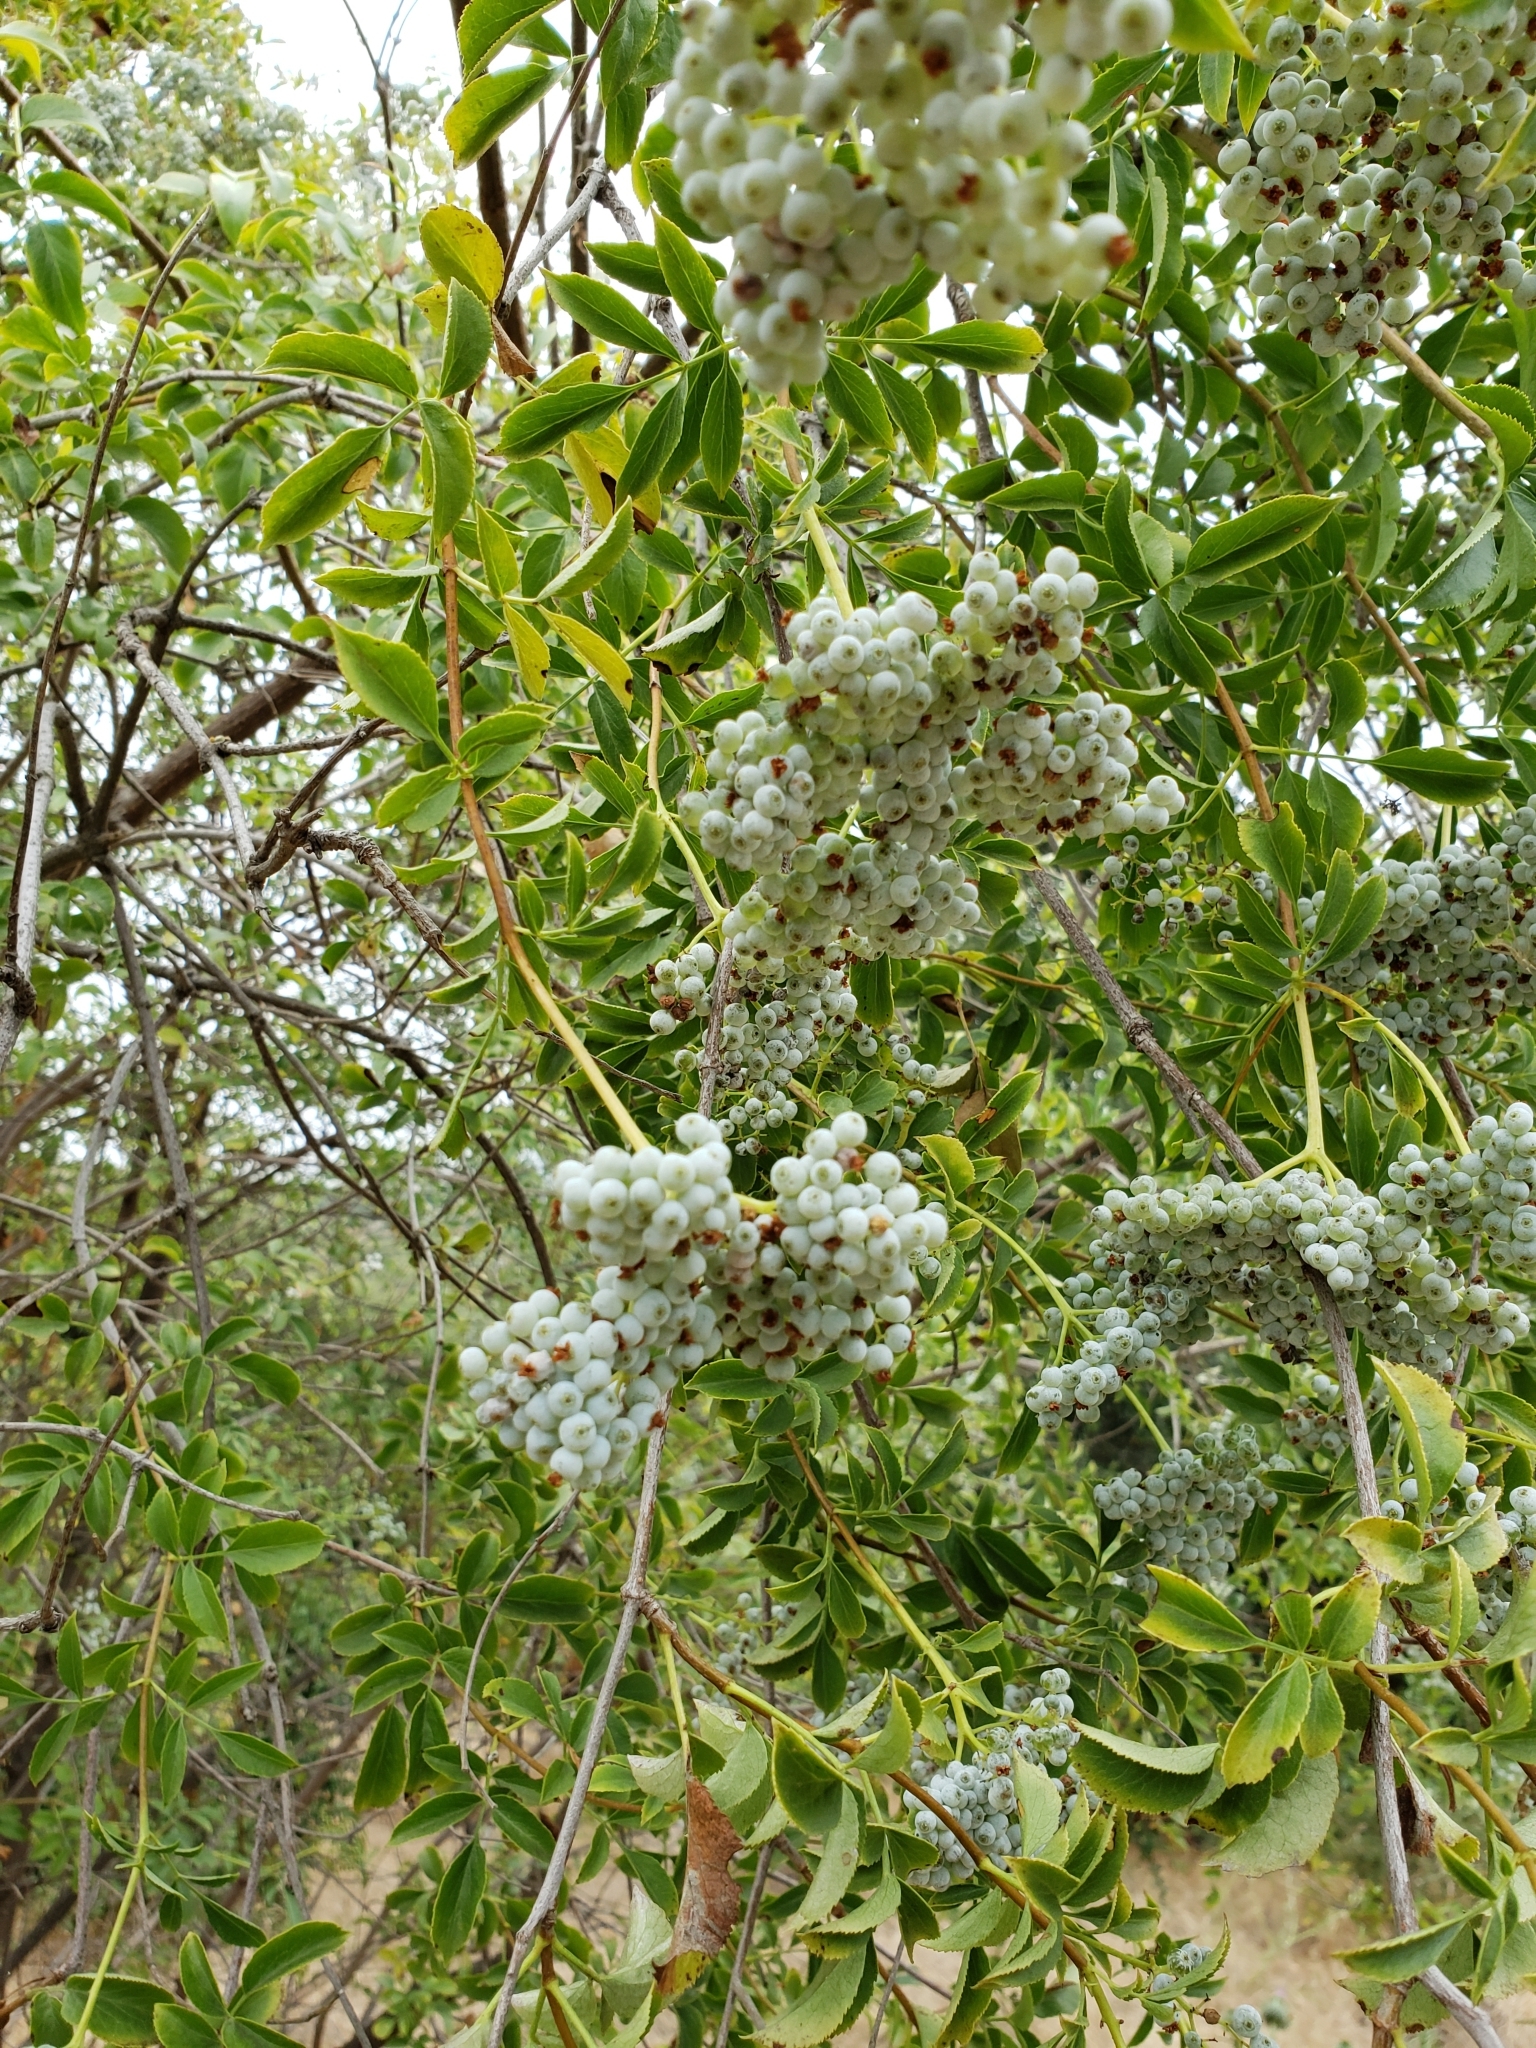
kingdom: Plantae
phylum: Tracheophyta
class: Magnoliopsida
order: Dipsacales
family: Viburnaceae
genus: Sambucus
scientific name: Sambucus cerulea
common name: Blue elder
